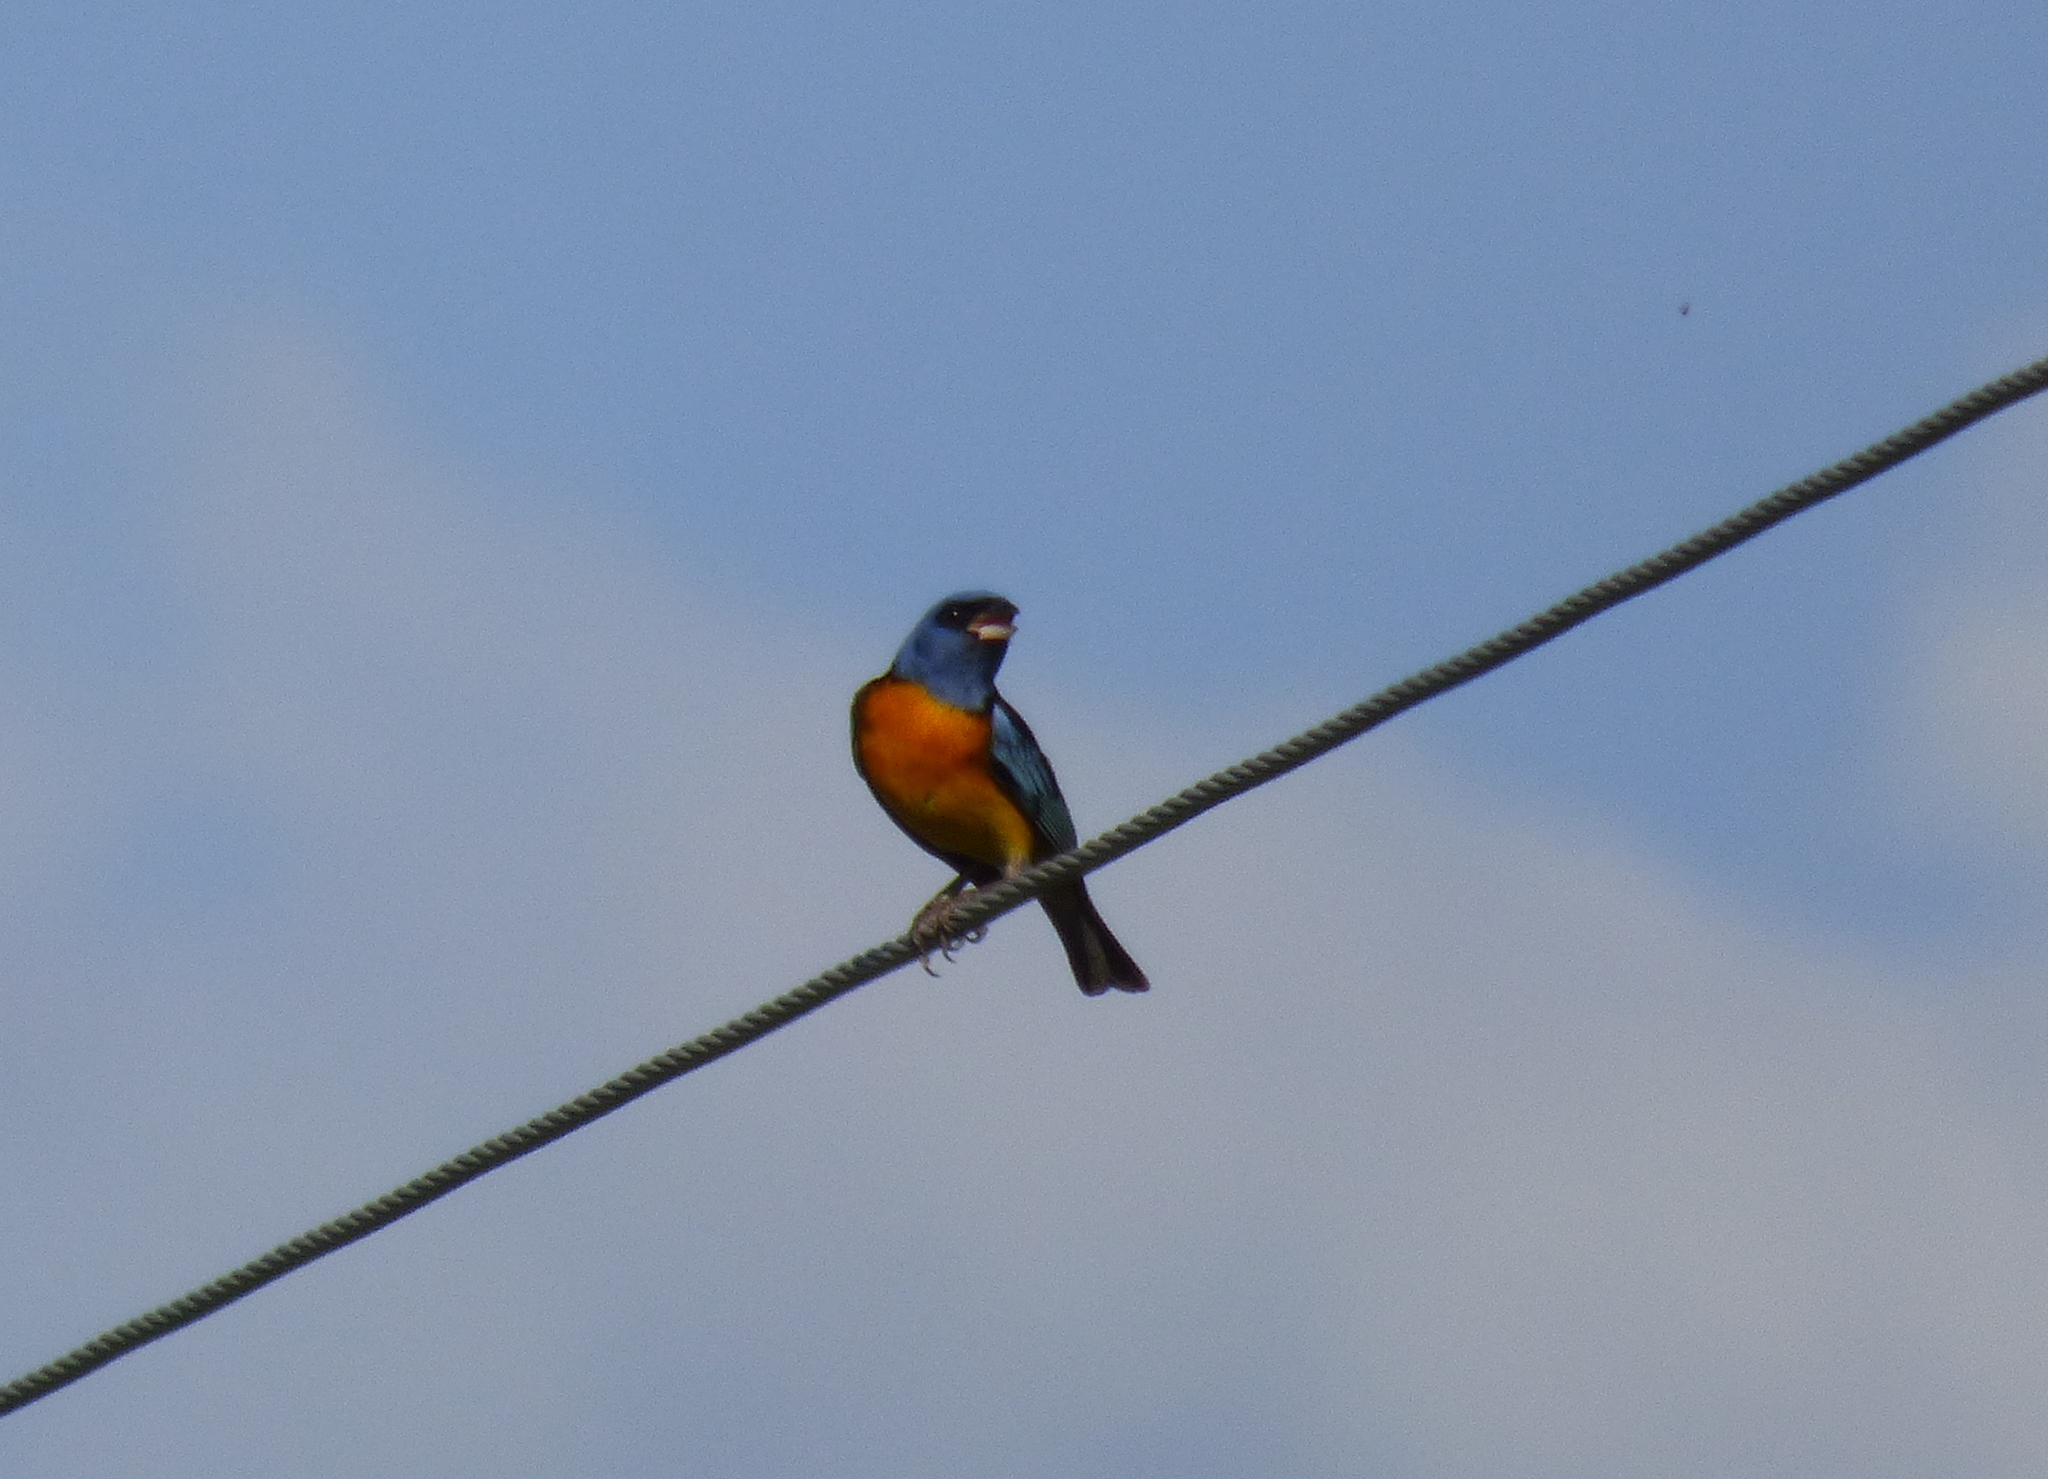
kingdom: Animalia
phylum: Chordata
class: Aves
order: Passeriformes
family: Thraupidae
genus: Rauenia
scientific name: Rauenia bonariensis
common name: Blue-and-yellow tanager
